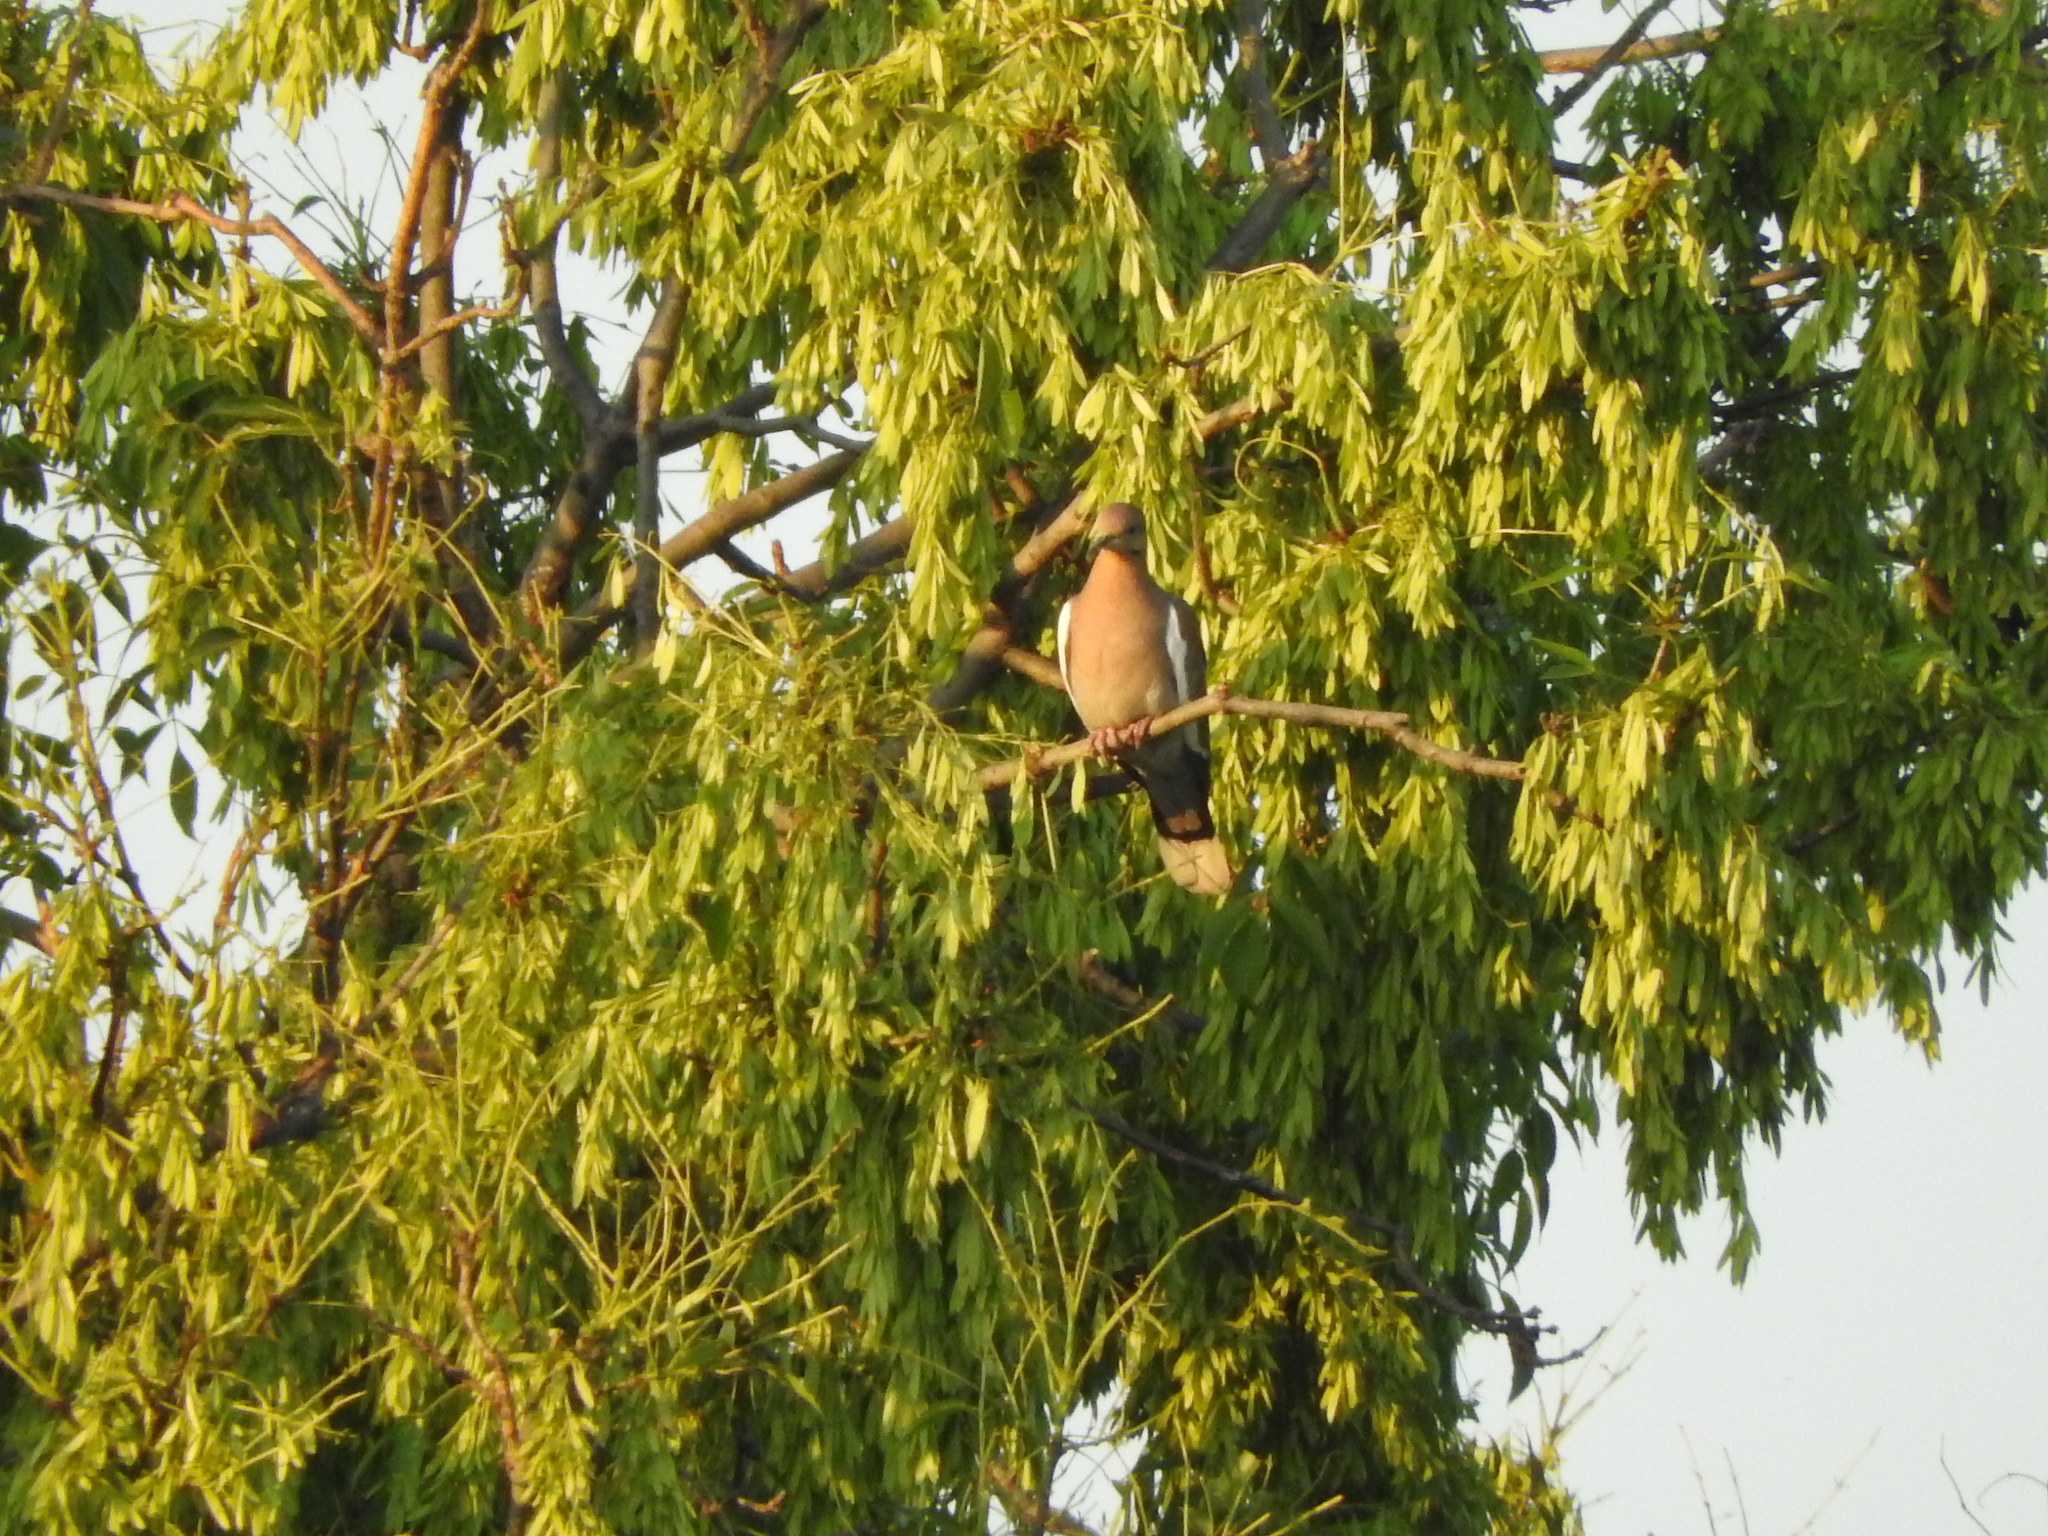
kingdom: Animalia
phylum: Chordata
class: Aves
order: Columbiformes
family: Columbidae
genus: Zenaida
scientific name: Zenaida asiatica
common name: White-winged dove
